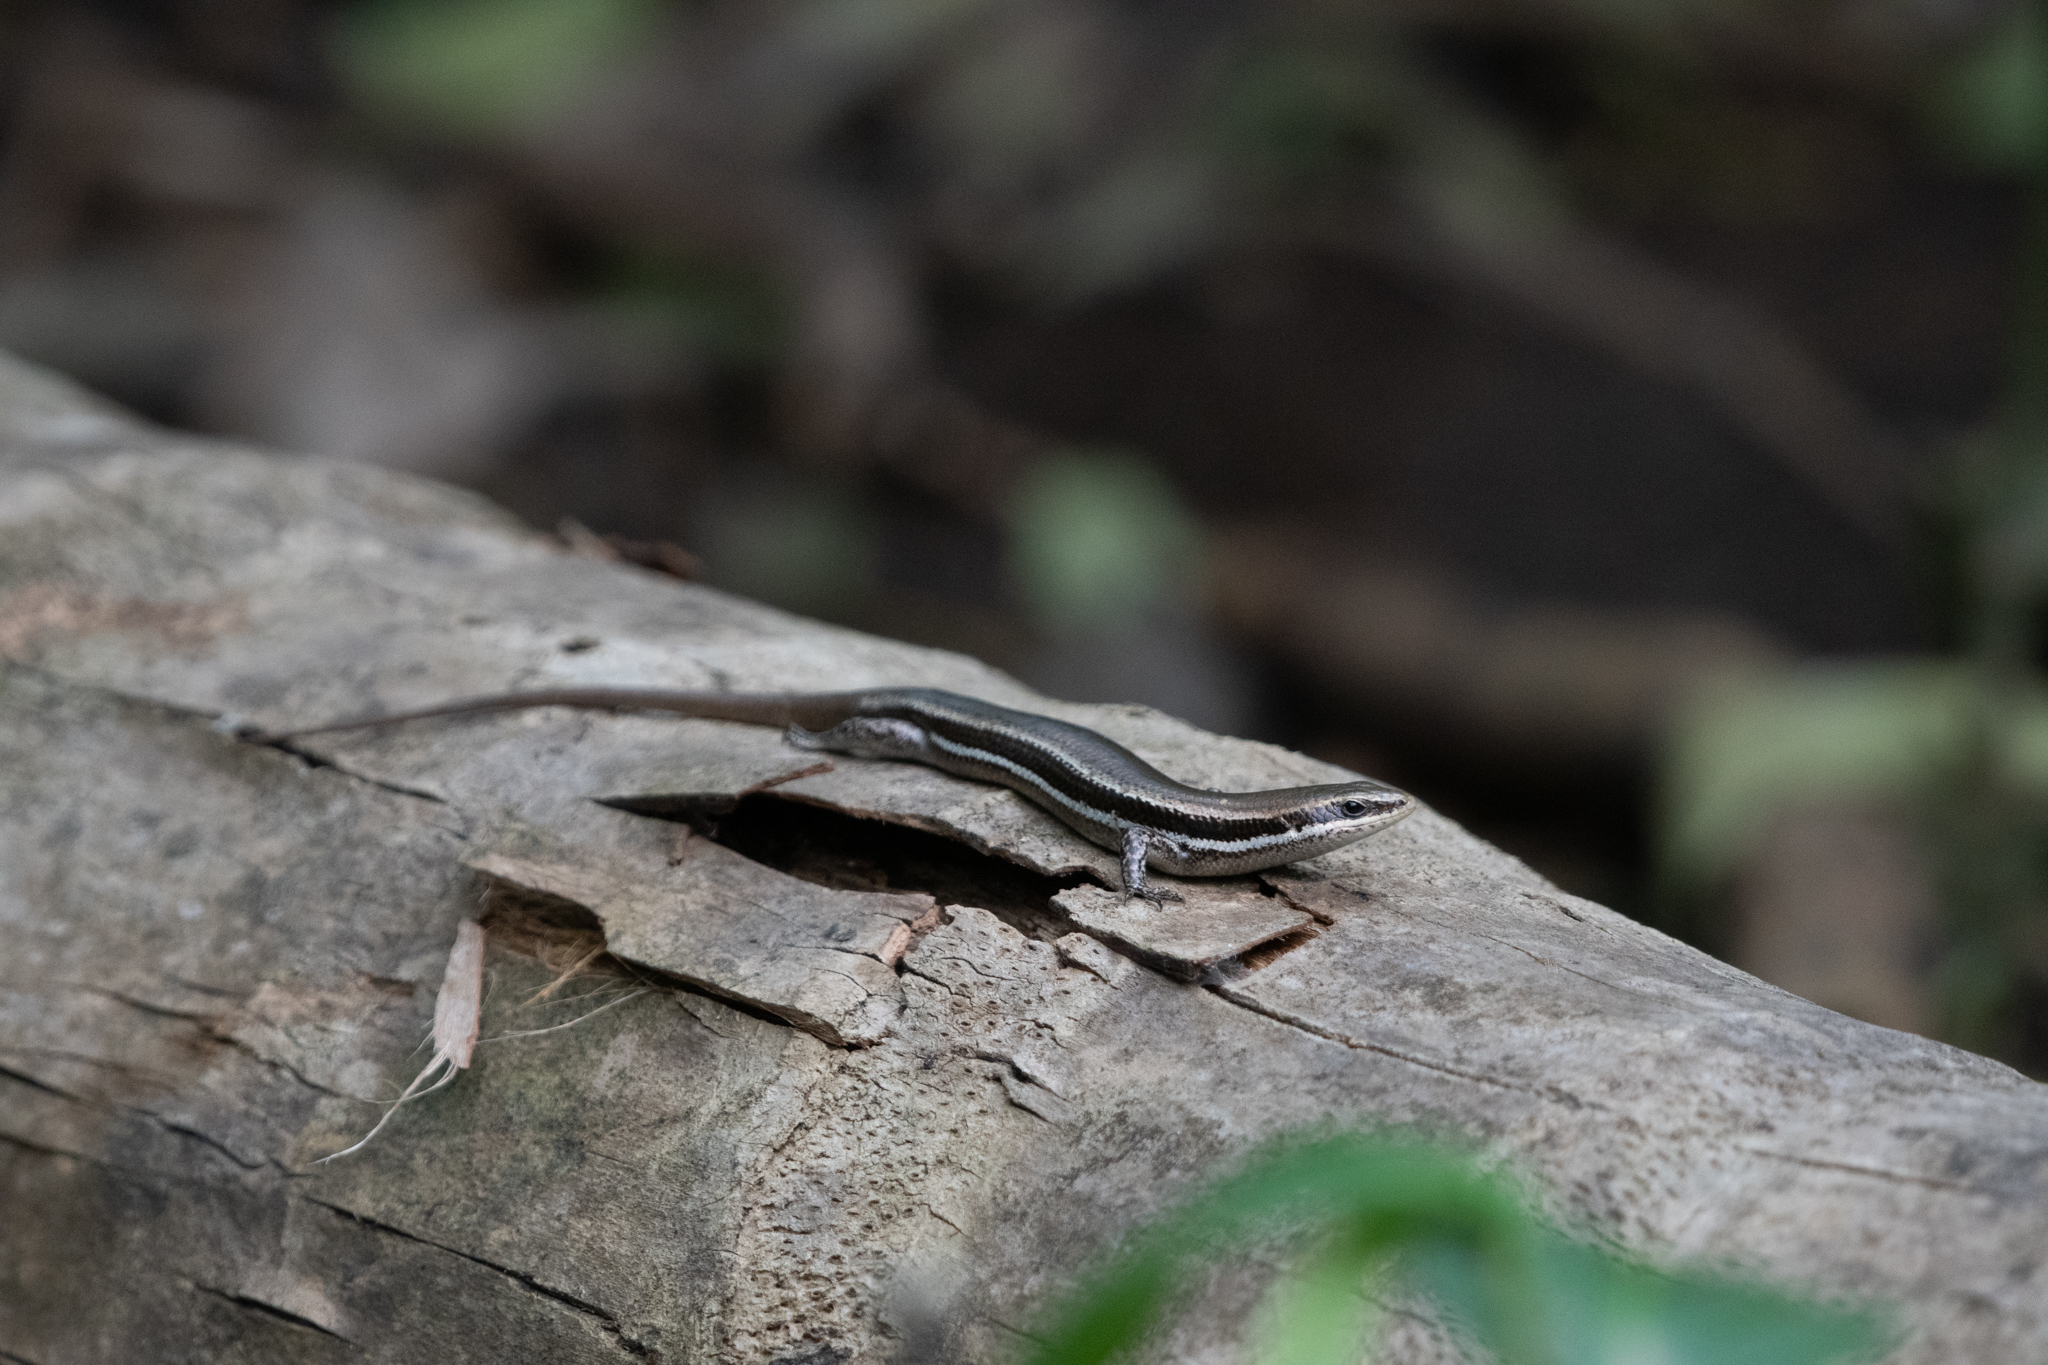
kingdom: Animalia
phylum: Chordata
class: Squamata
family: Scincidae
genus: Marisora
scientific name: Marisora roatanae
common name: Honduran skink
